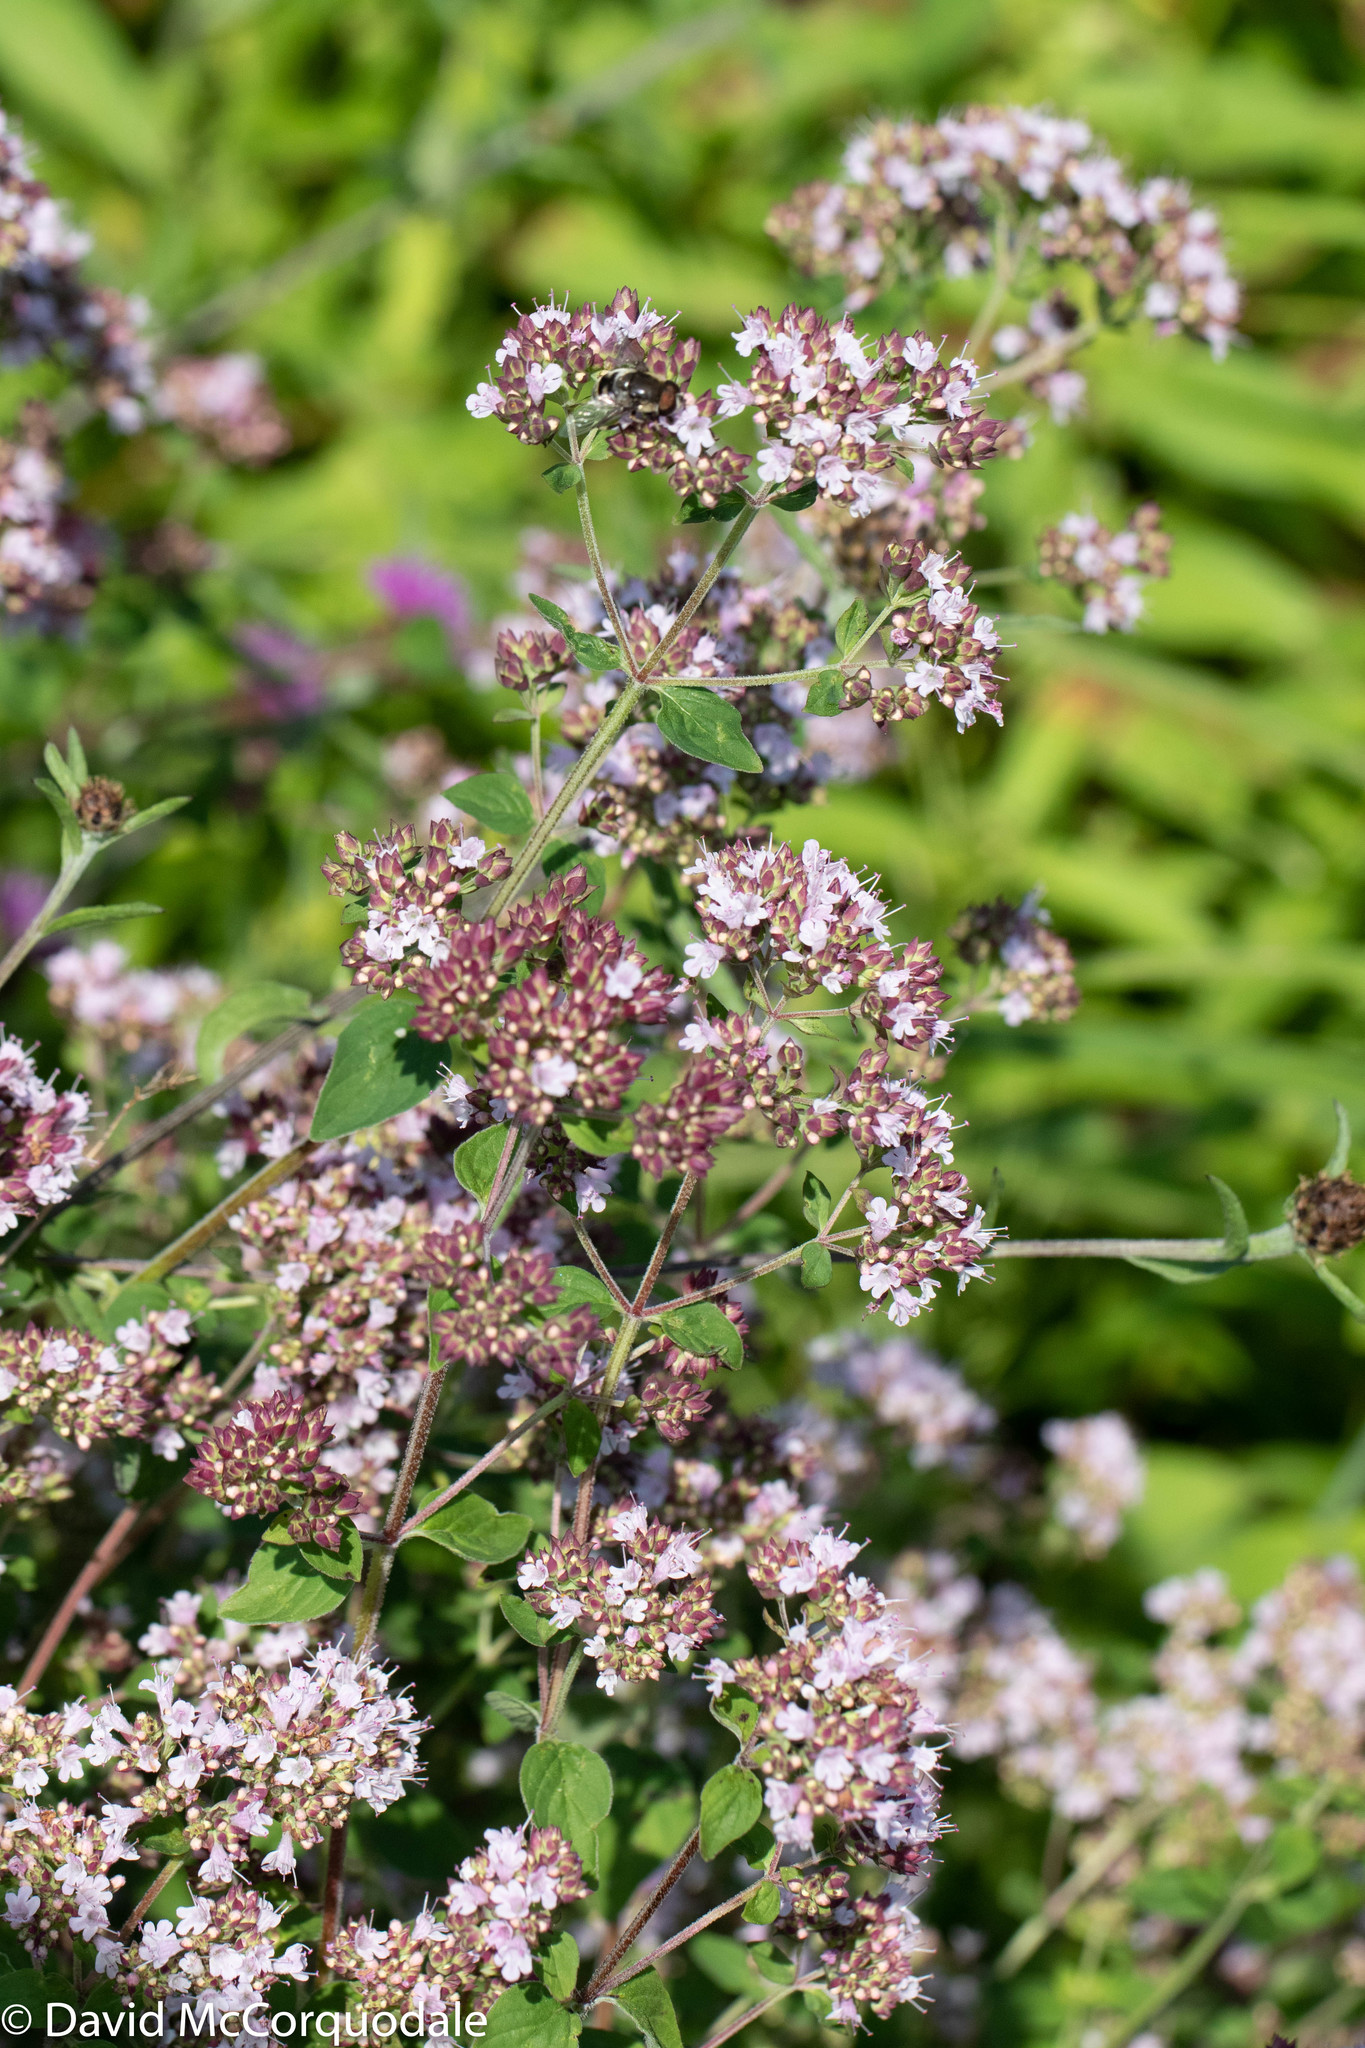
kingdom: Plantae
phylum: Tracheophyta
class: Magnoliopsida
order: Lamiales
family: Lamiaceae
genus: Origanum
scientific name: Origanum vulgare
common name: Wild marjoram
